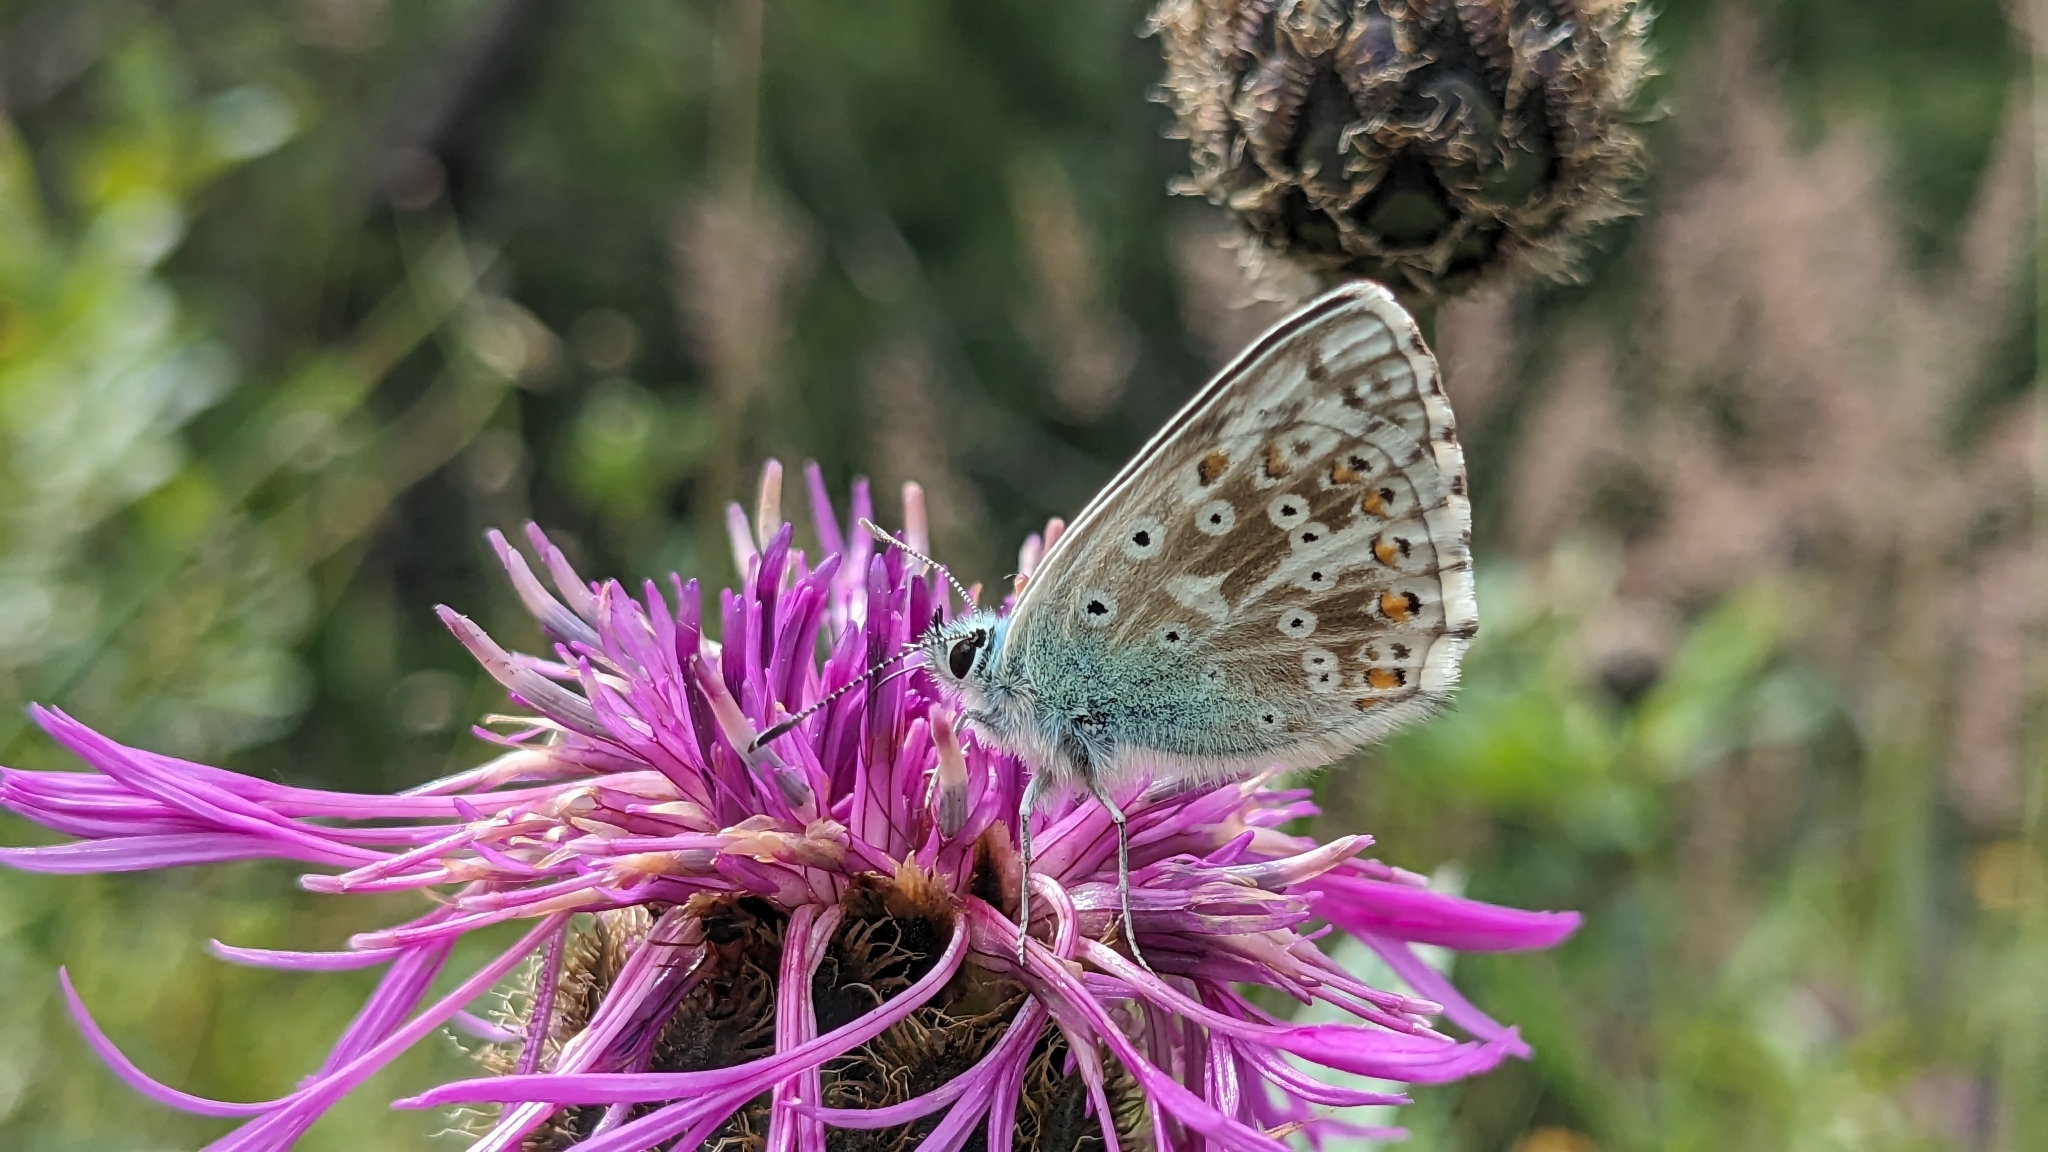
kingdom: Animalia
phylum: Arthropoda
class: Insecta
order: Lepidoptera
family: Lycaenidae
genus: Lysandra
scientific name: Lysandra coridon
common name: Chalkhill blue
